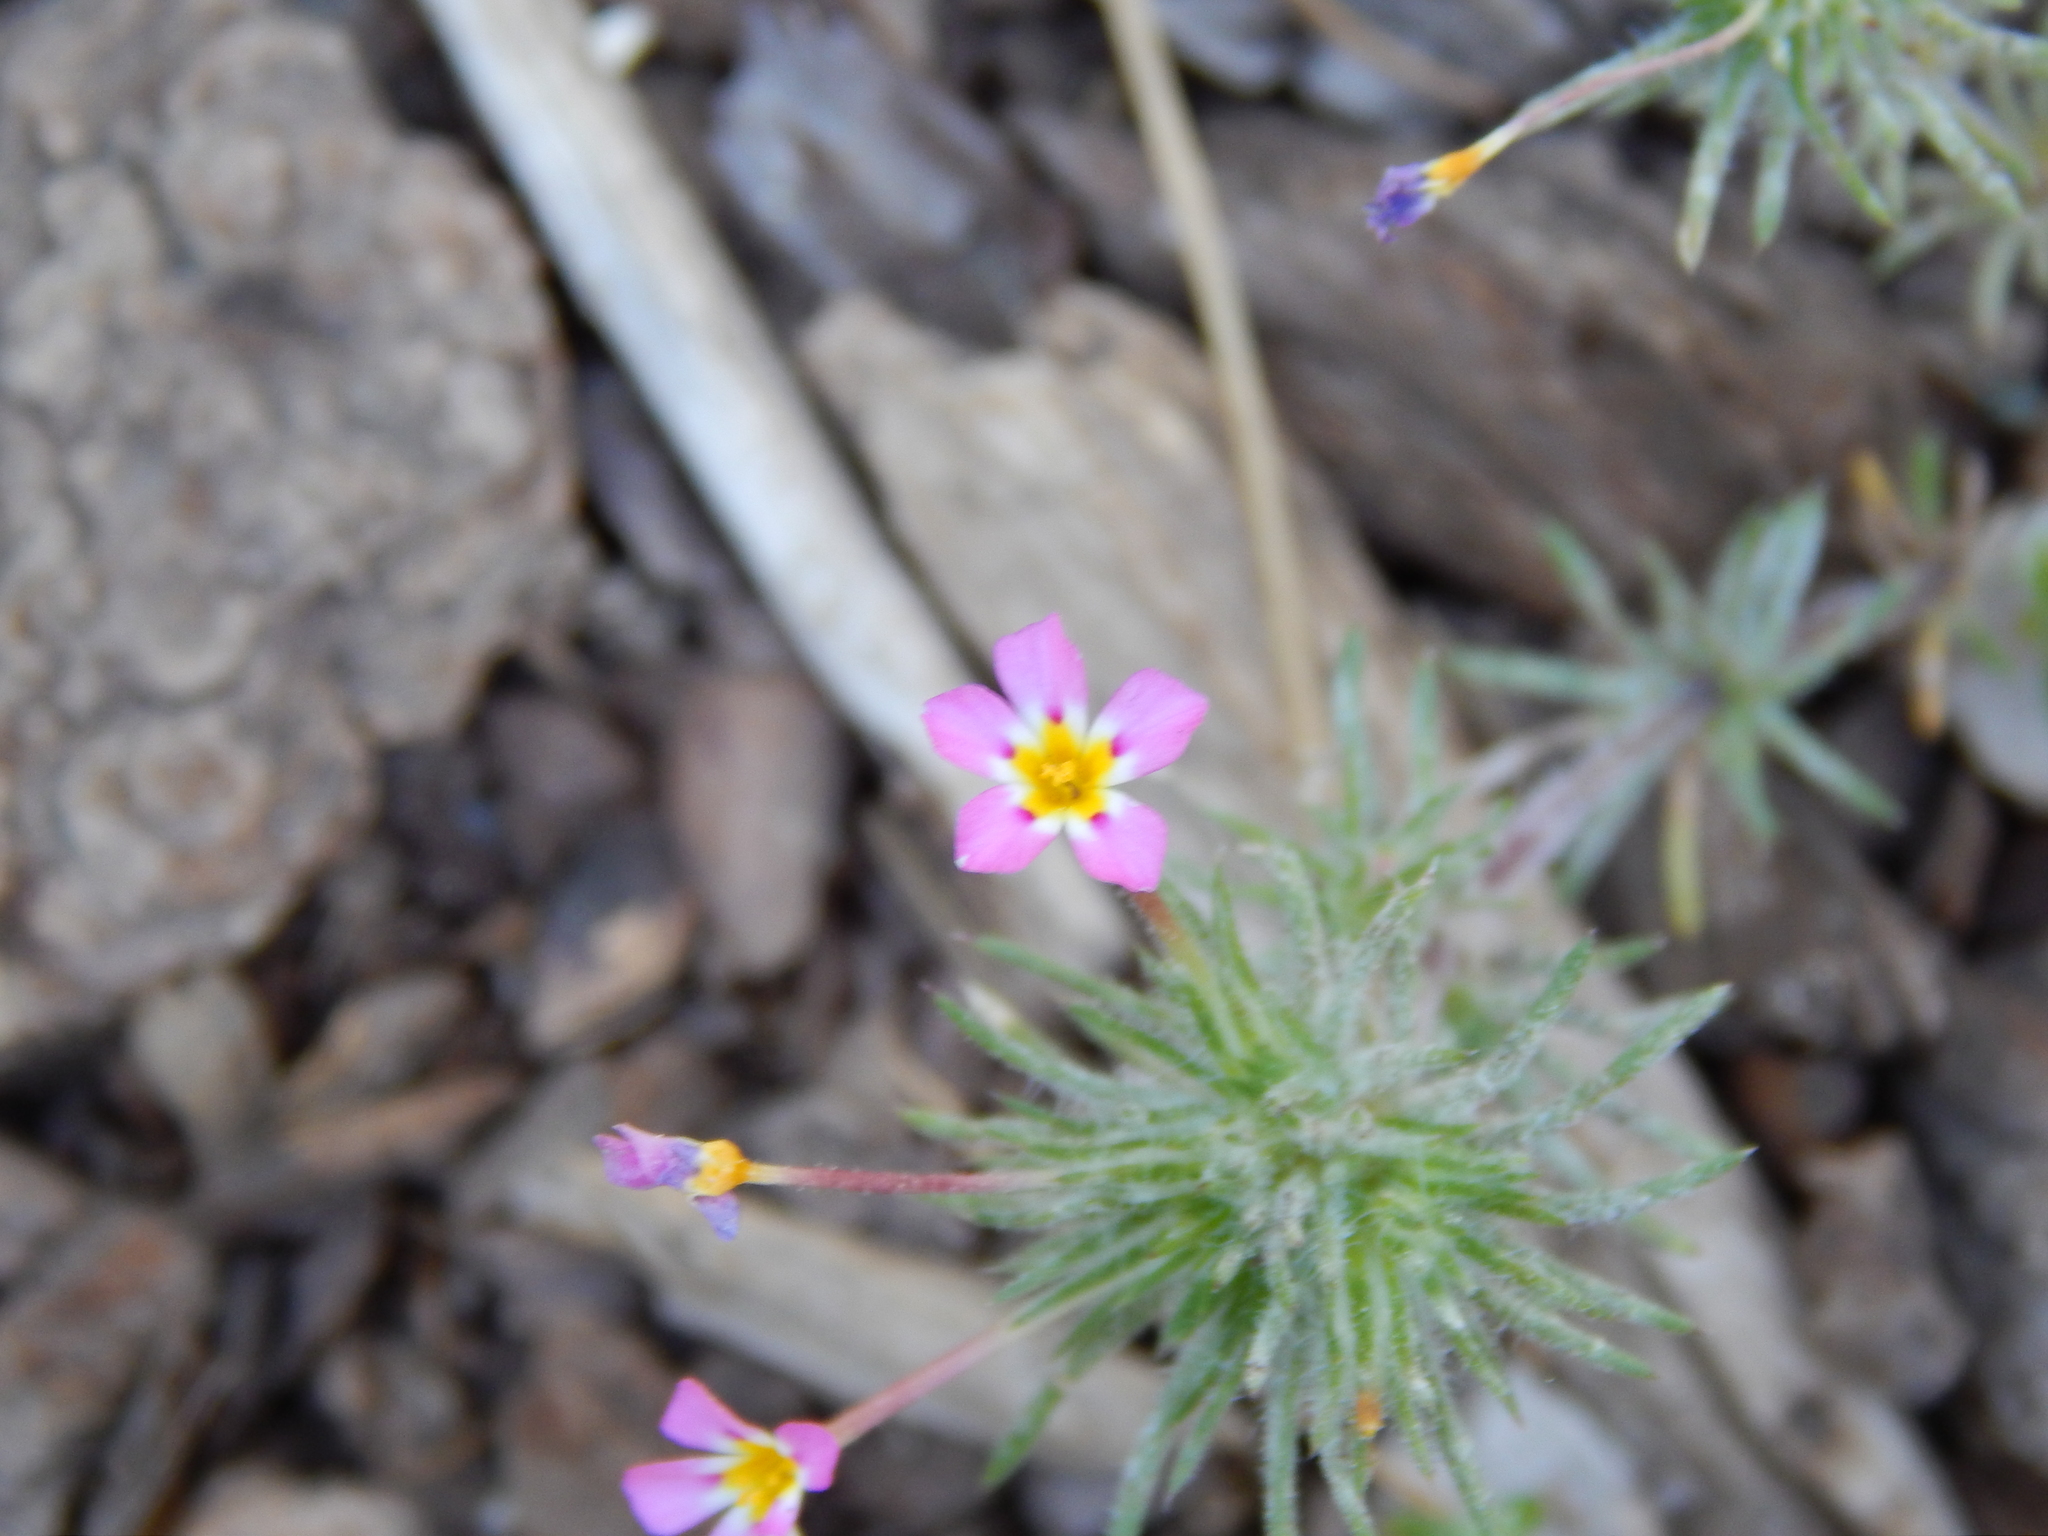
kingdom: Plantae
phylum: Tracheophyta
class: Magnoliopsida
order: Ericales
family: Polemoniaceae
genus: Leptosiphon
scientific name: Leptosiphon ciliatus
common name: Whiskerbrush
